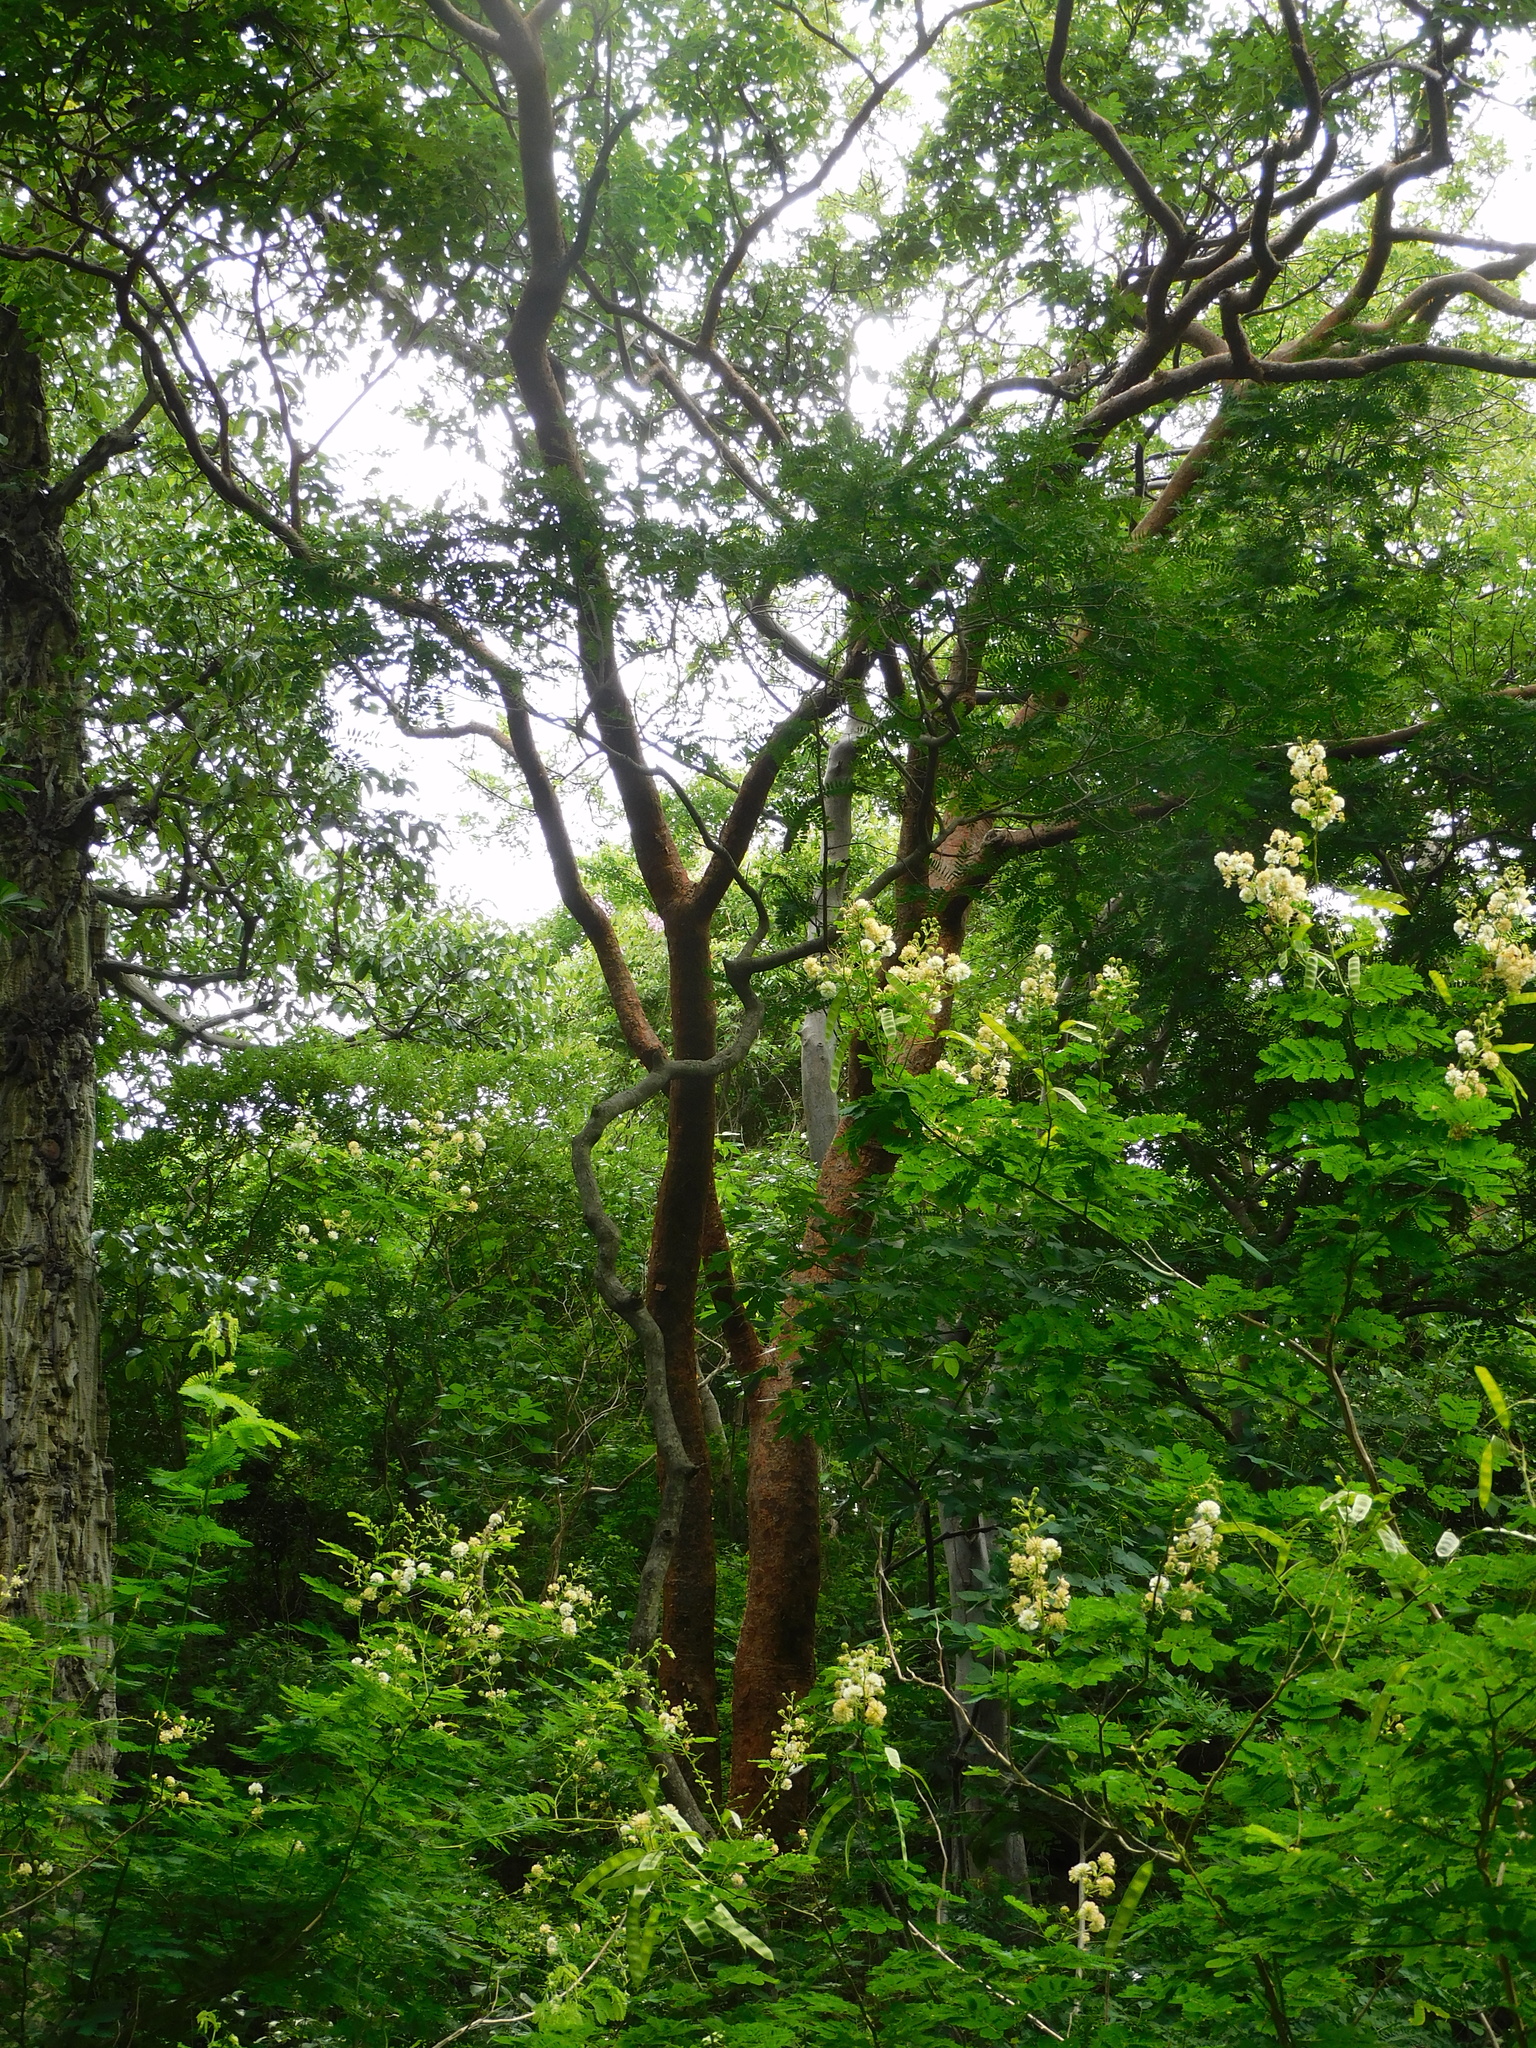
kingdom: Plantae
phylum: Tracheophyta
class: Magnoliopsida
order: Sapindales
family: Burseraceae
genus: Bursera
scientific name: Bursera simaruba
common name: Turpentine tree
